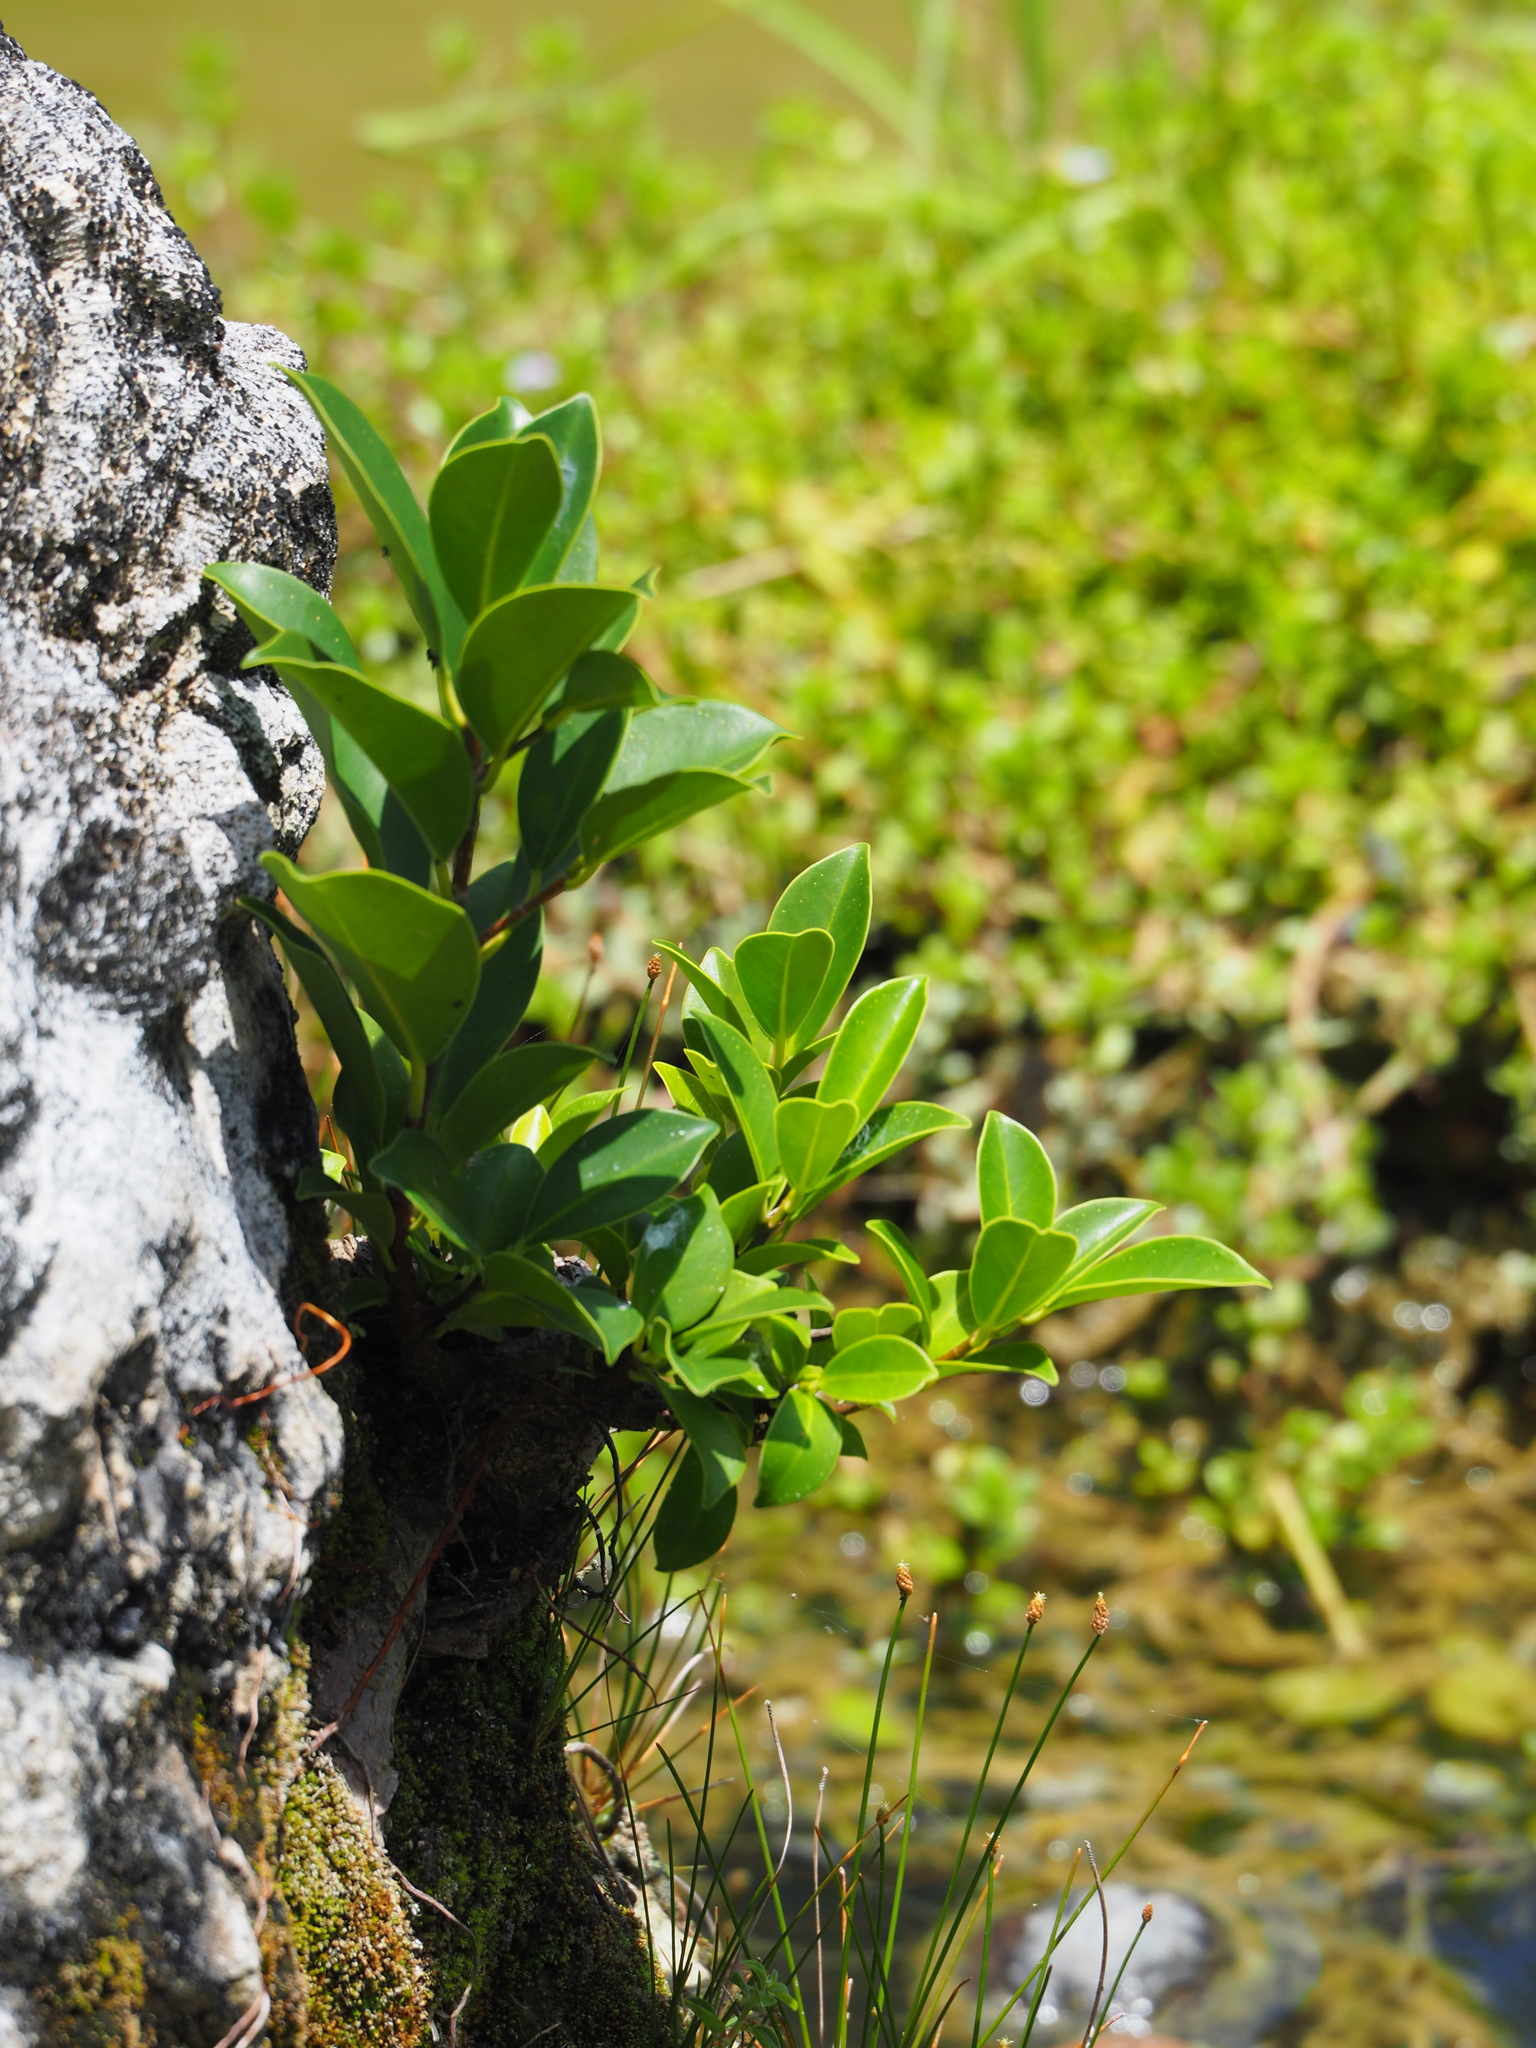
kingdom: Plantae
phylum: Tracheophyta
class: Magnoliopsida
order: Rosales
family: Moraceae
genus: Ficus
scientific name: Ficus microcarpa
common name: Chinese banyan
